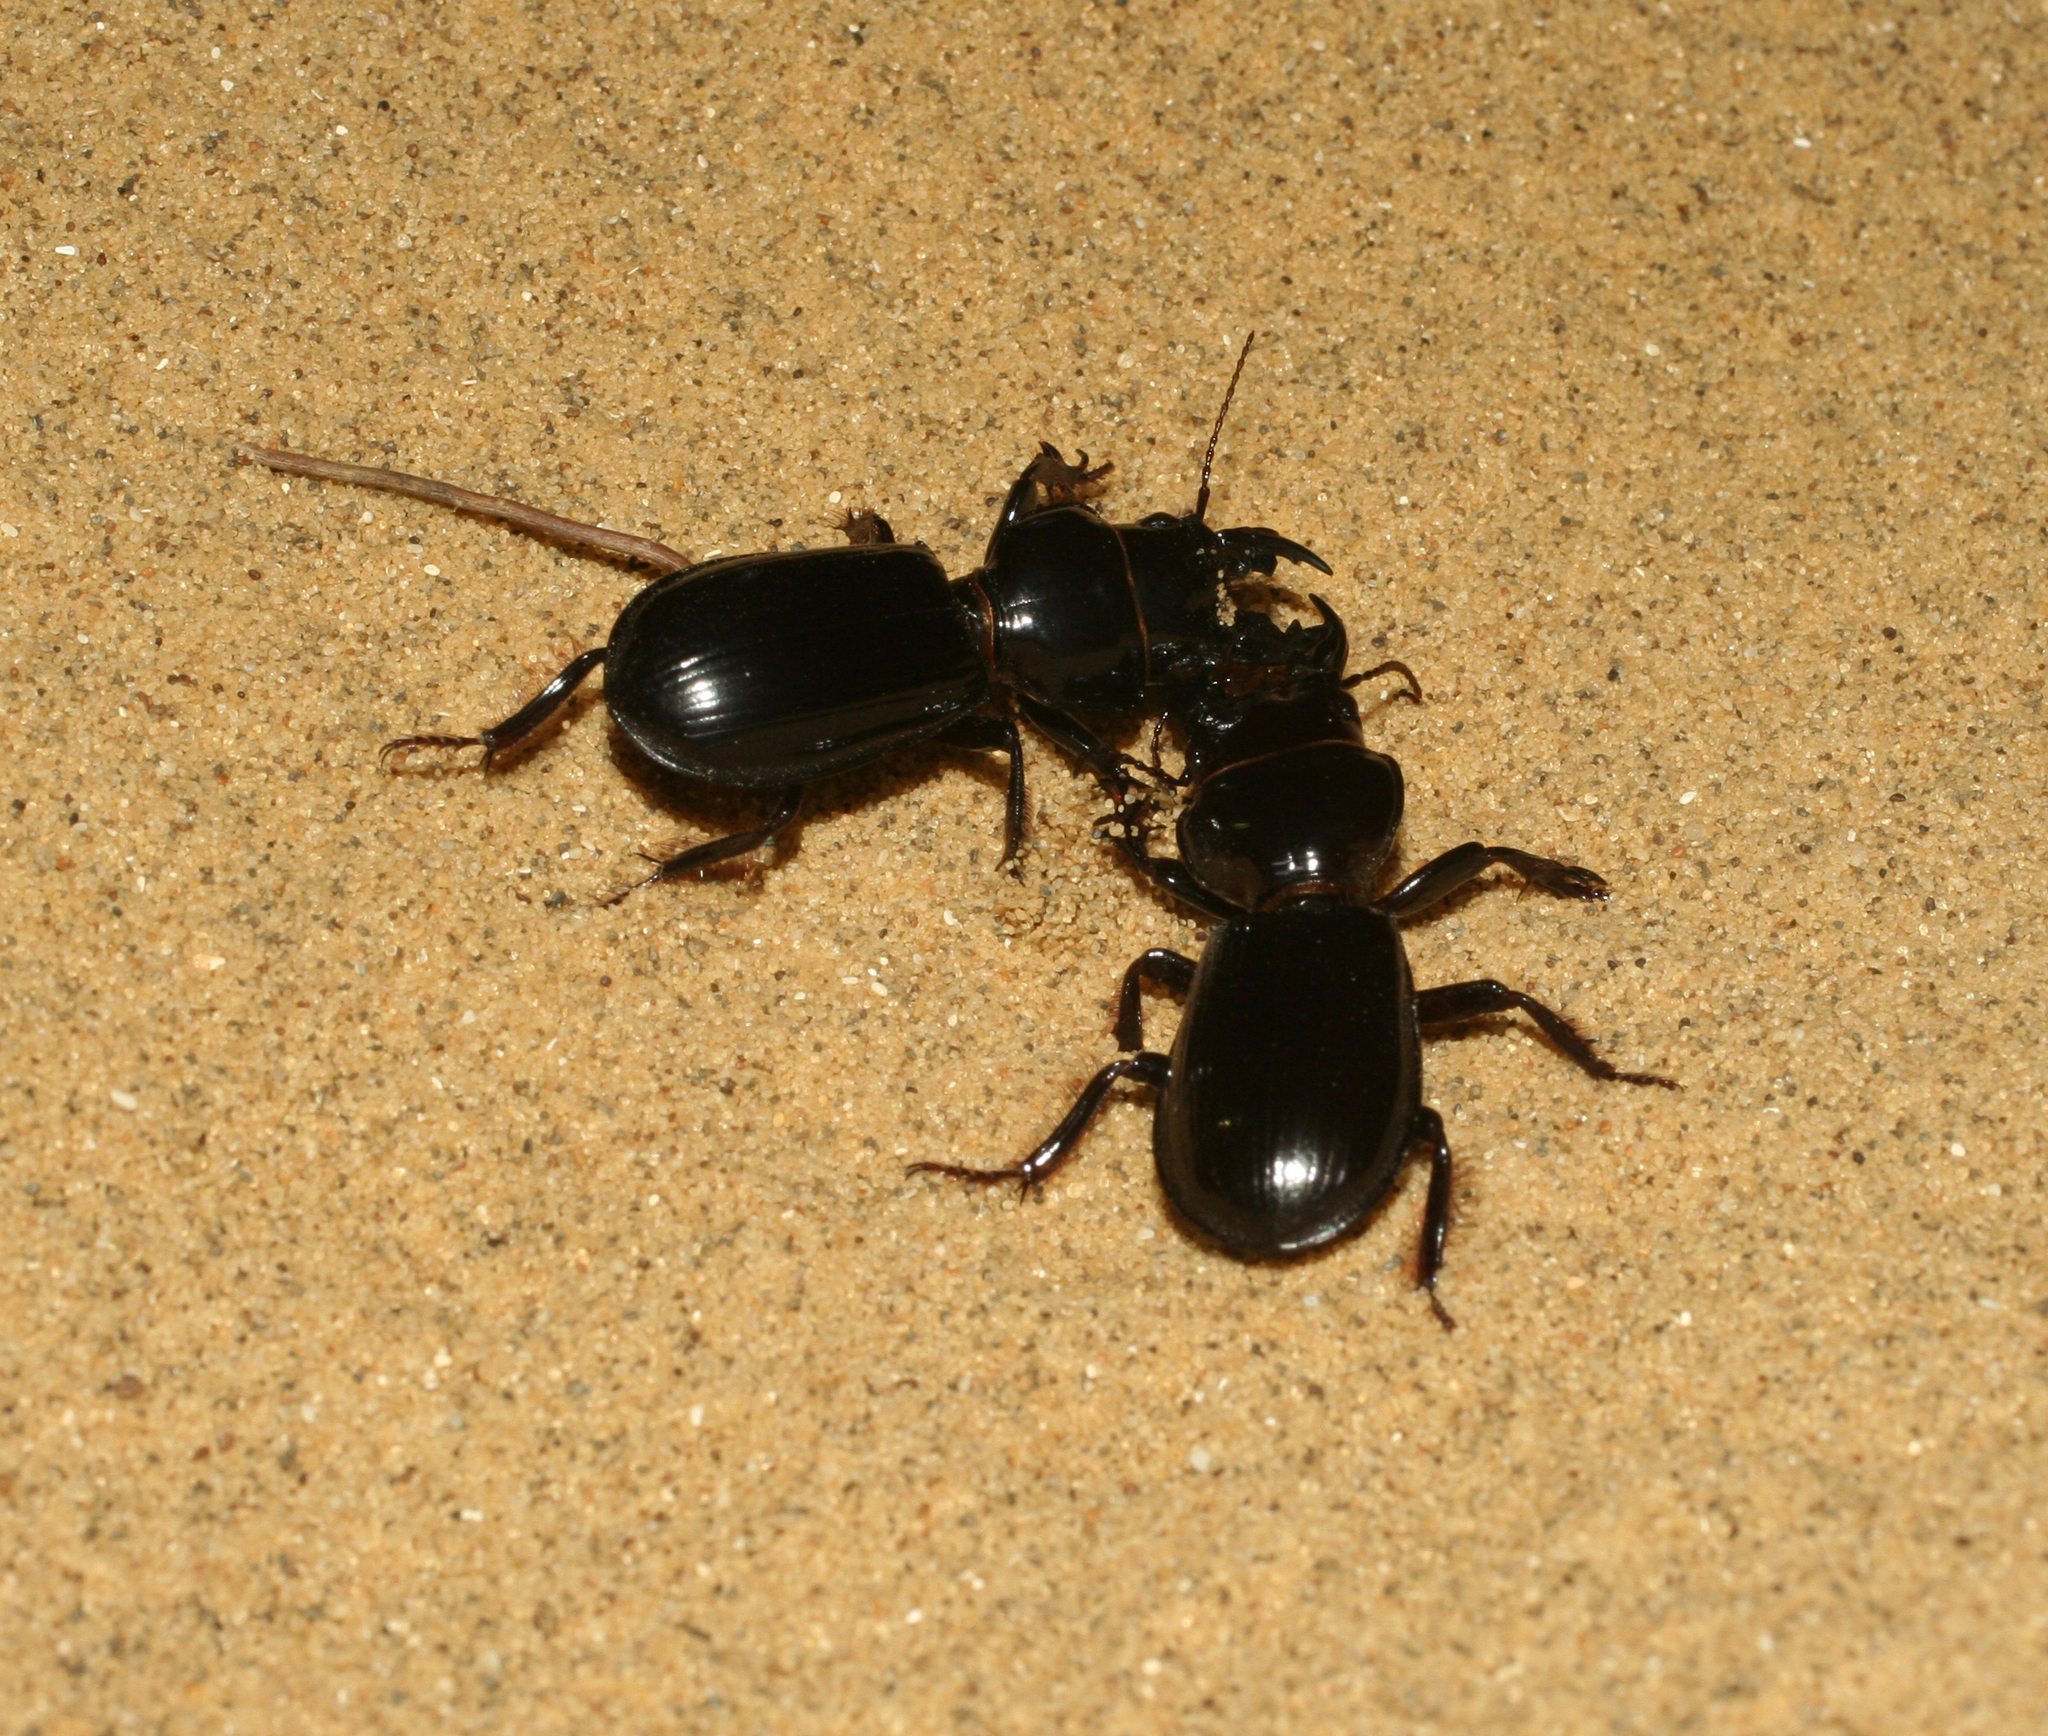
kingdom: Animalia
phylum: Arthropoda
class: Insecta
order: Coleoptera
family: Carabidae
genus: Scarites
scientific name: Scarites bucida
